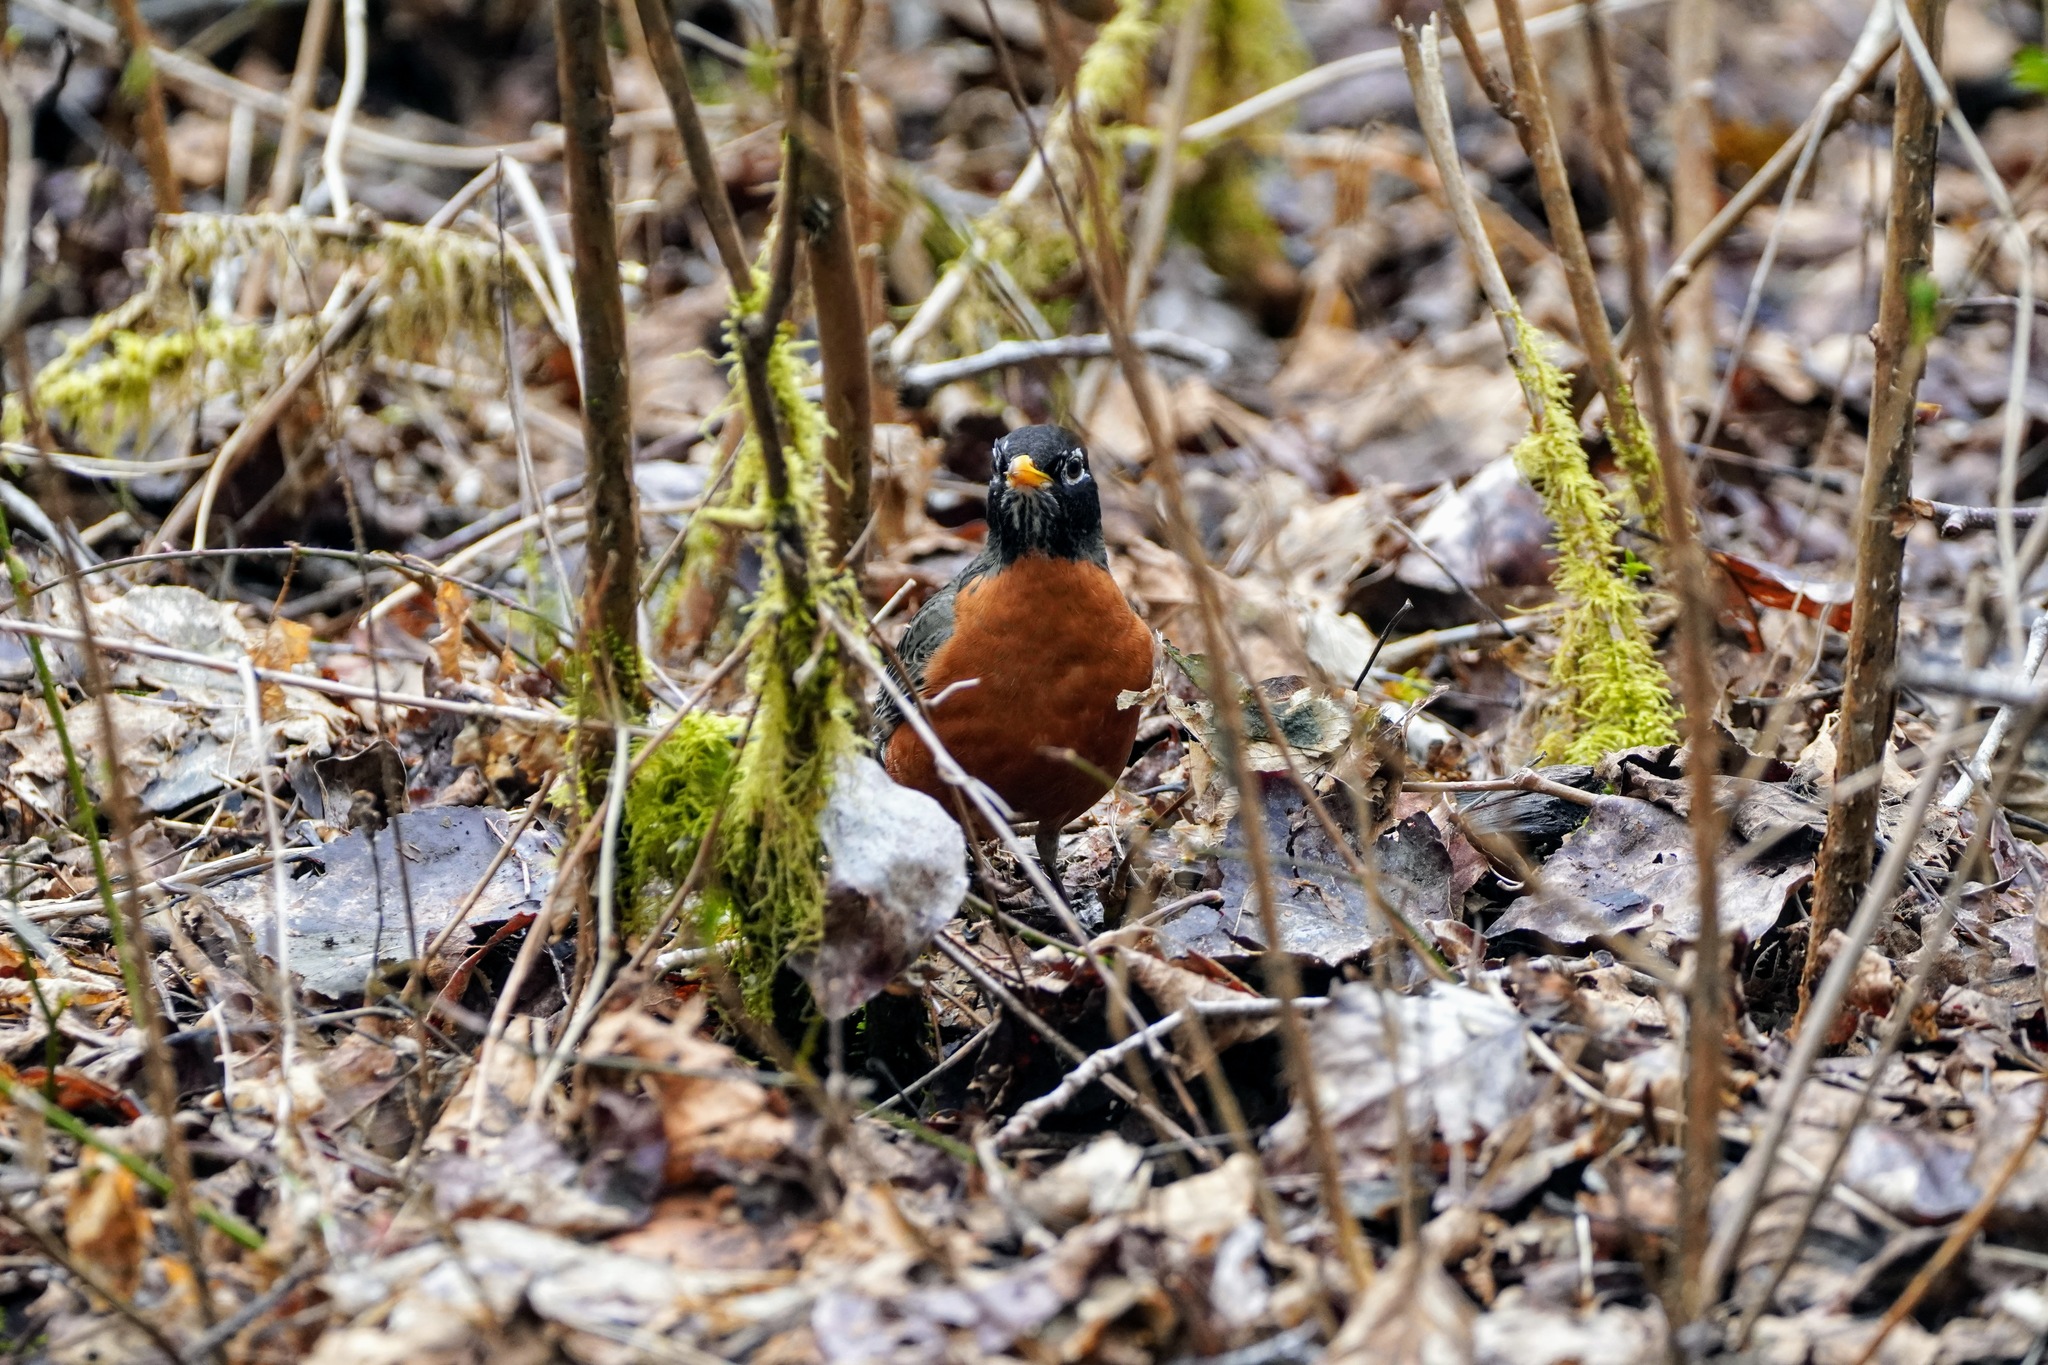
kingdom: Animalia
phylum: Chordata
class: Aves
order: Passeriformes
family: Turdidae
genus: Turdus
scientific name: Turdus migratorius
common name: American robin
